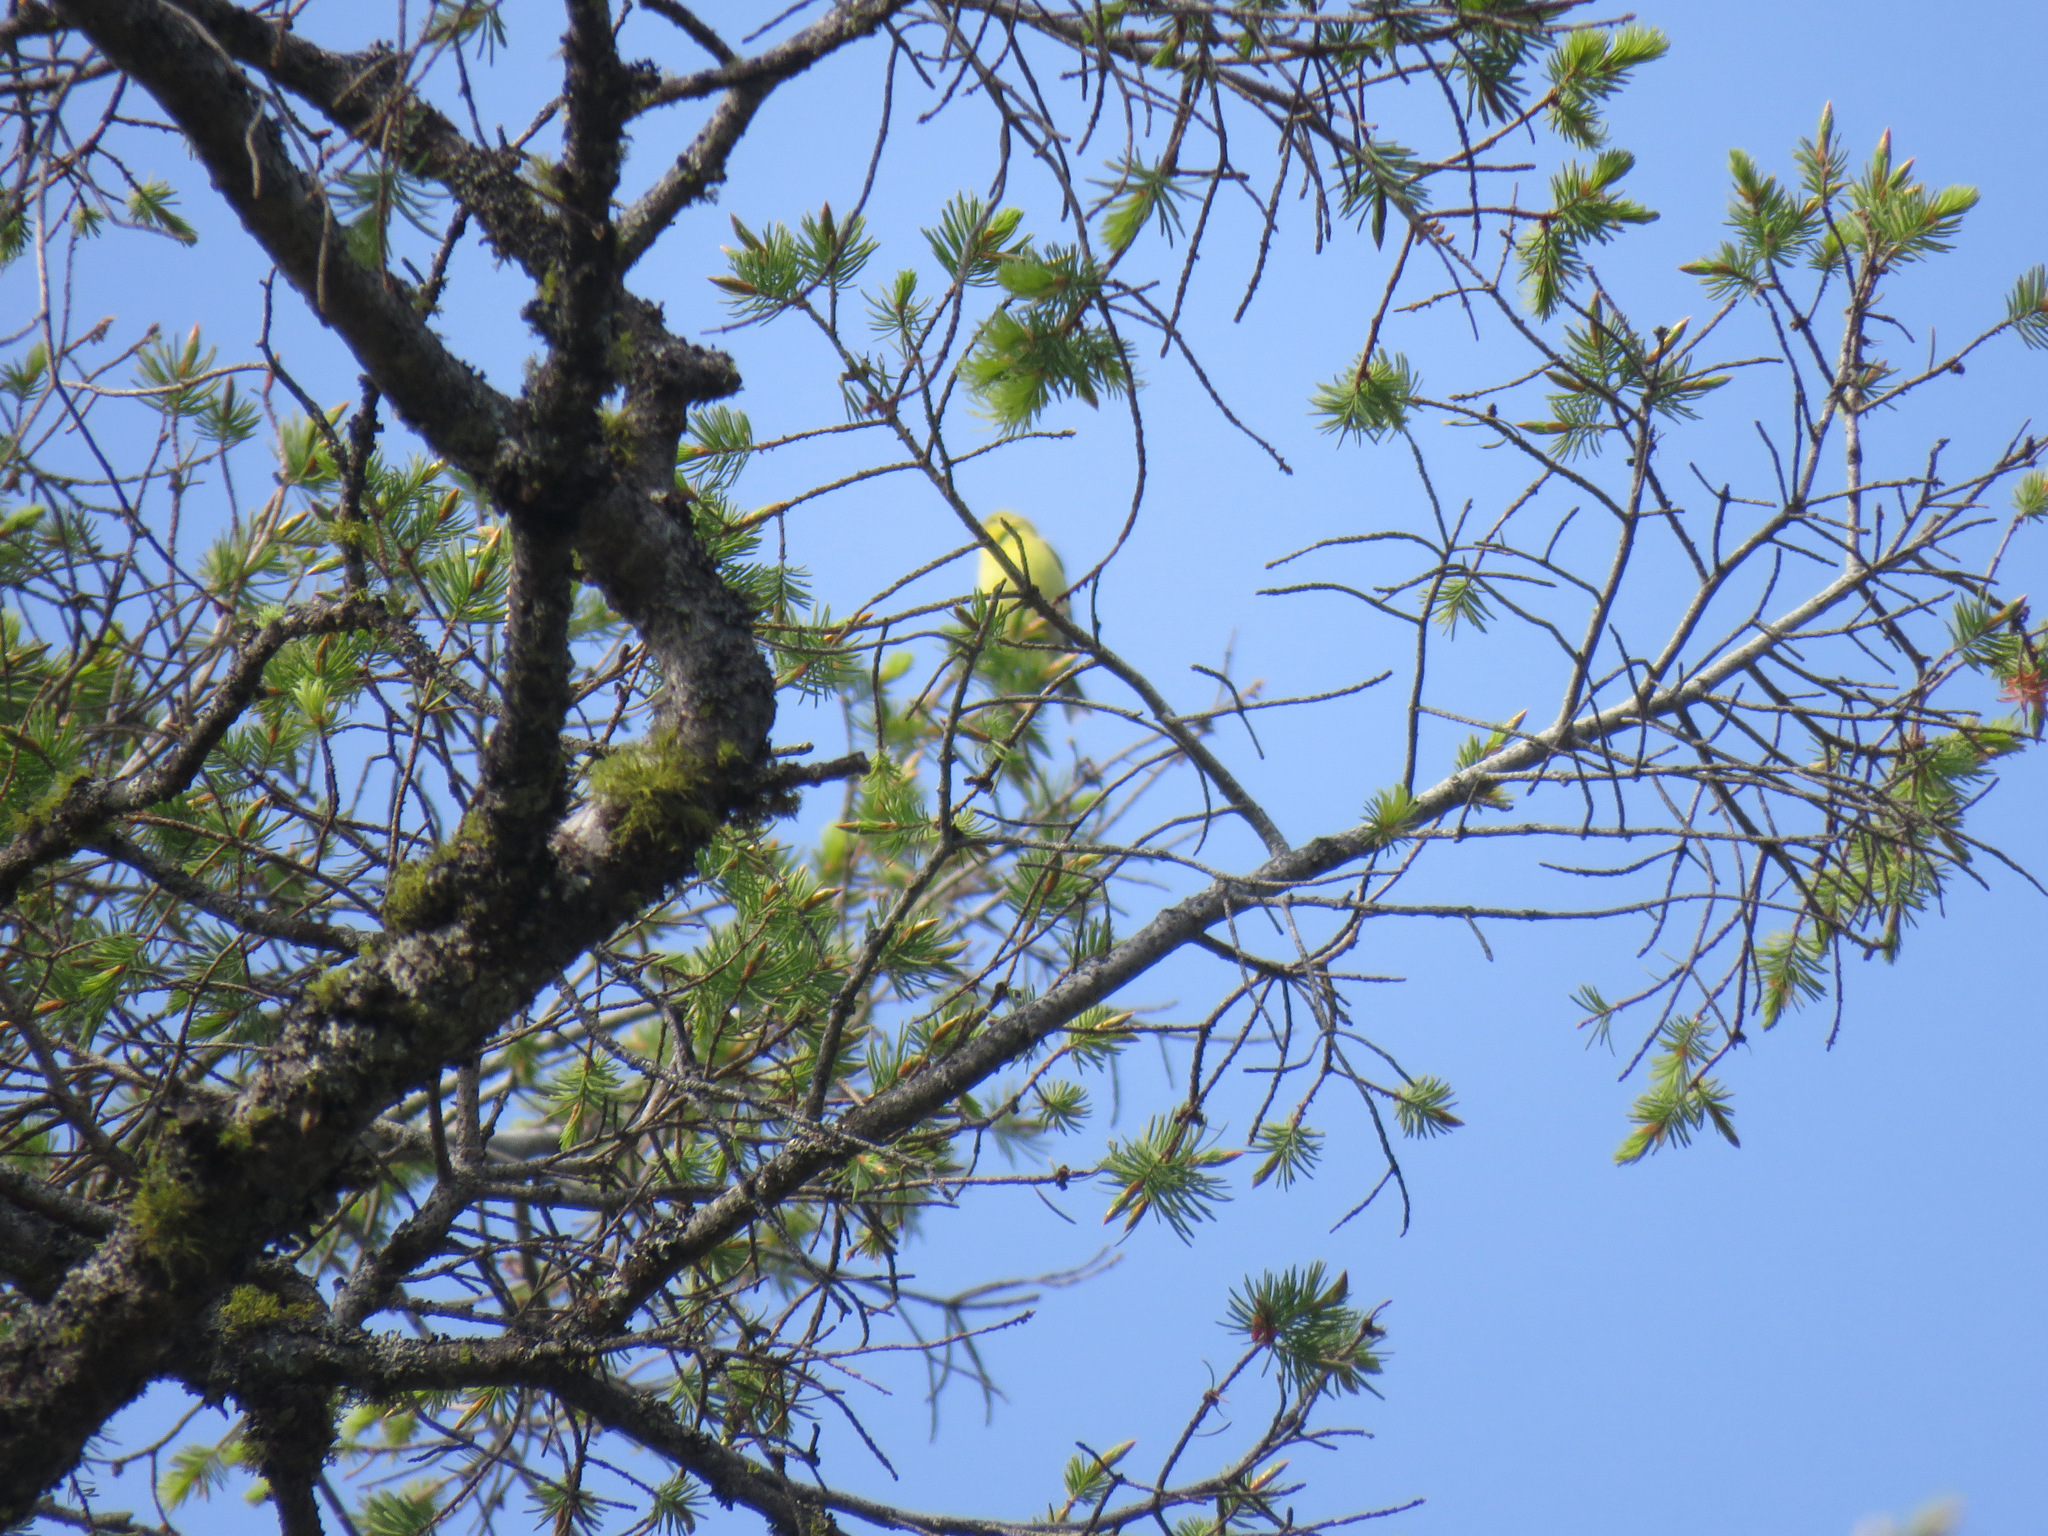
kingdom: Animalia
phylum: Chordata
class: Aves
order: Passeriformes
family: Fringillidae
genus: Spinus
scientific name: Spinus tristis
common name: American goldfinch
